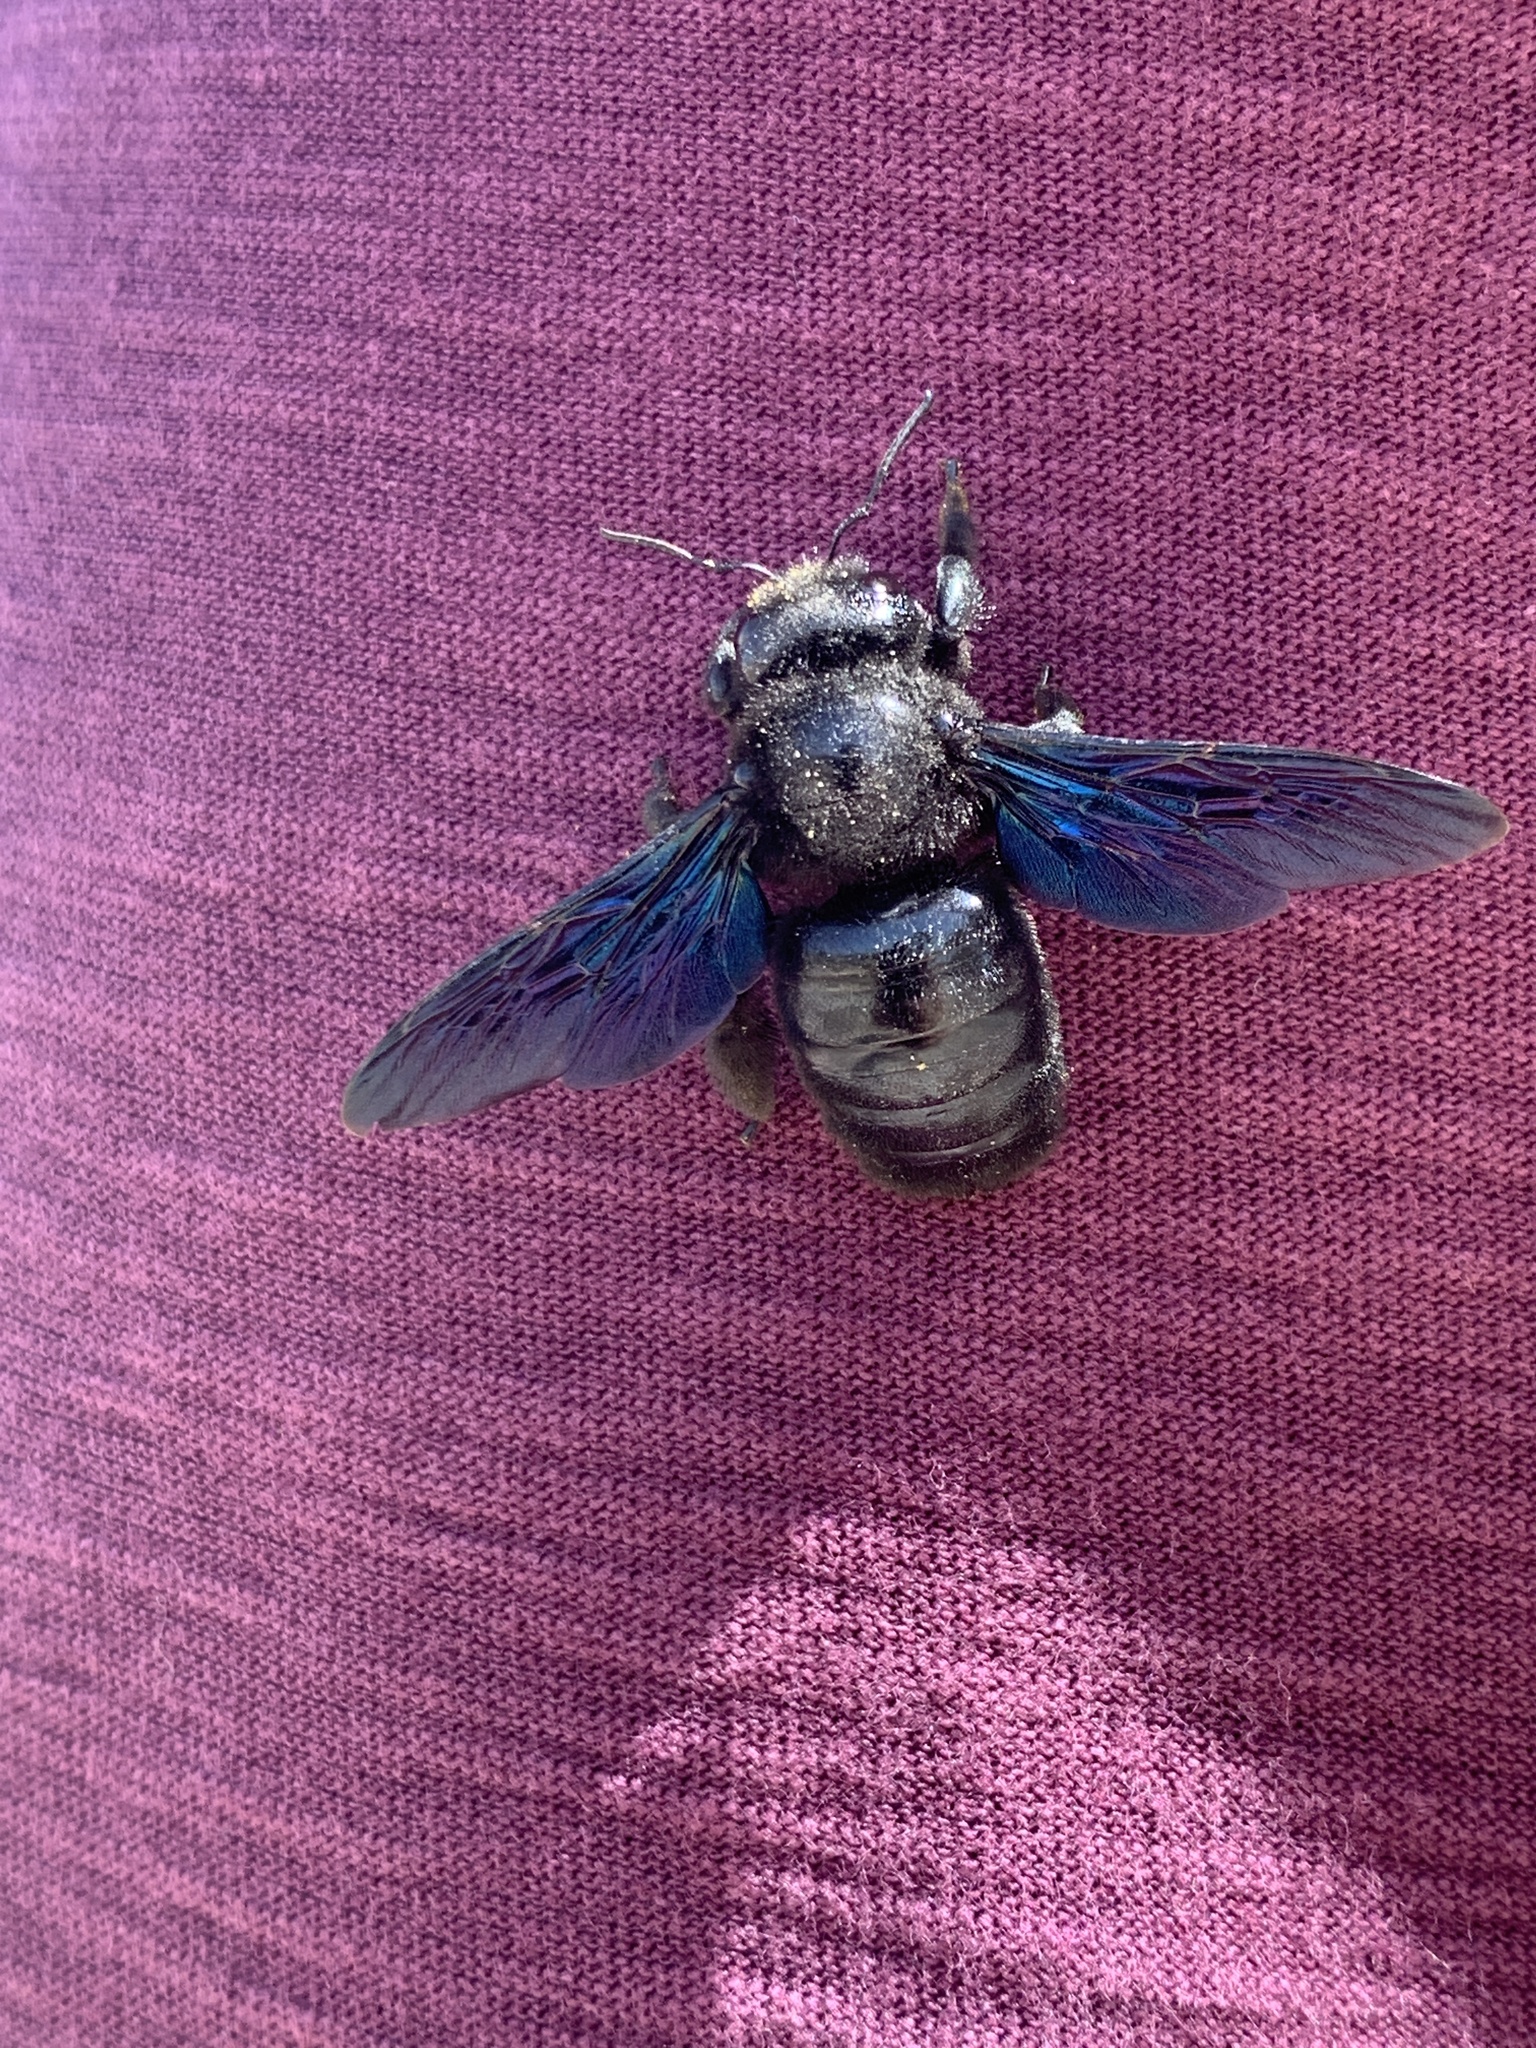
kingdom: Animalia
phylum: Arthropoda
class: Insecta
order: Hymenoptera
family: Apidae
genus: Xylocopa
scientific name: Xylocopa violacea
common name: Violet carpenter bee
